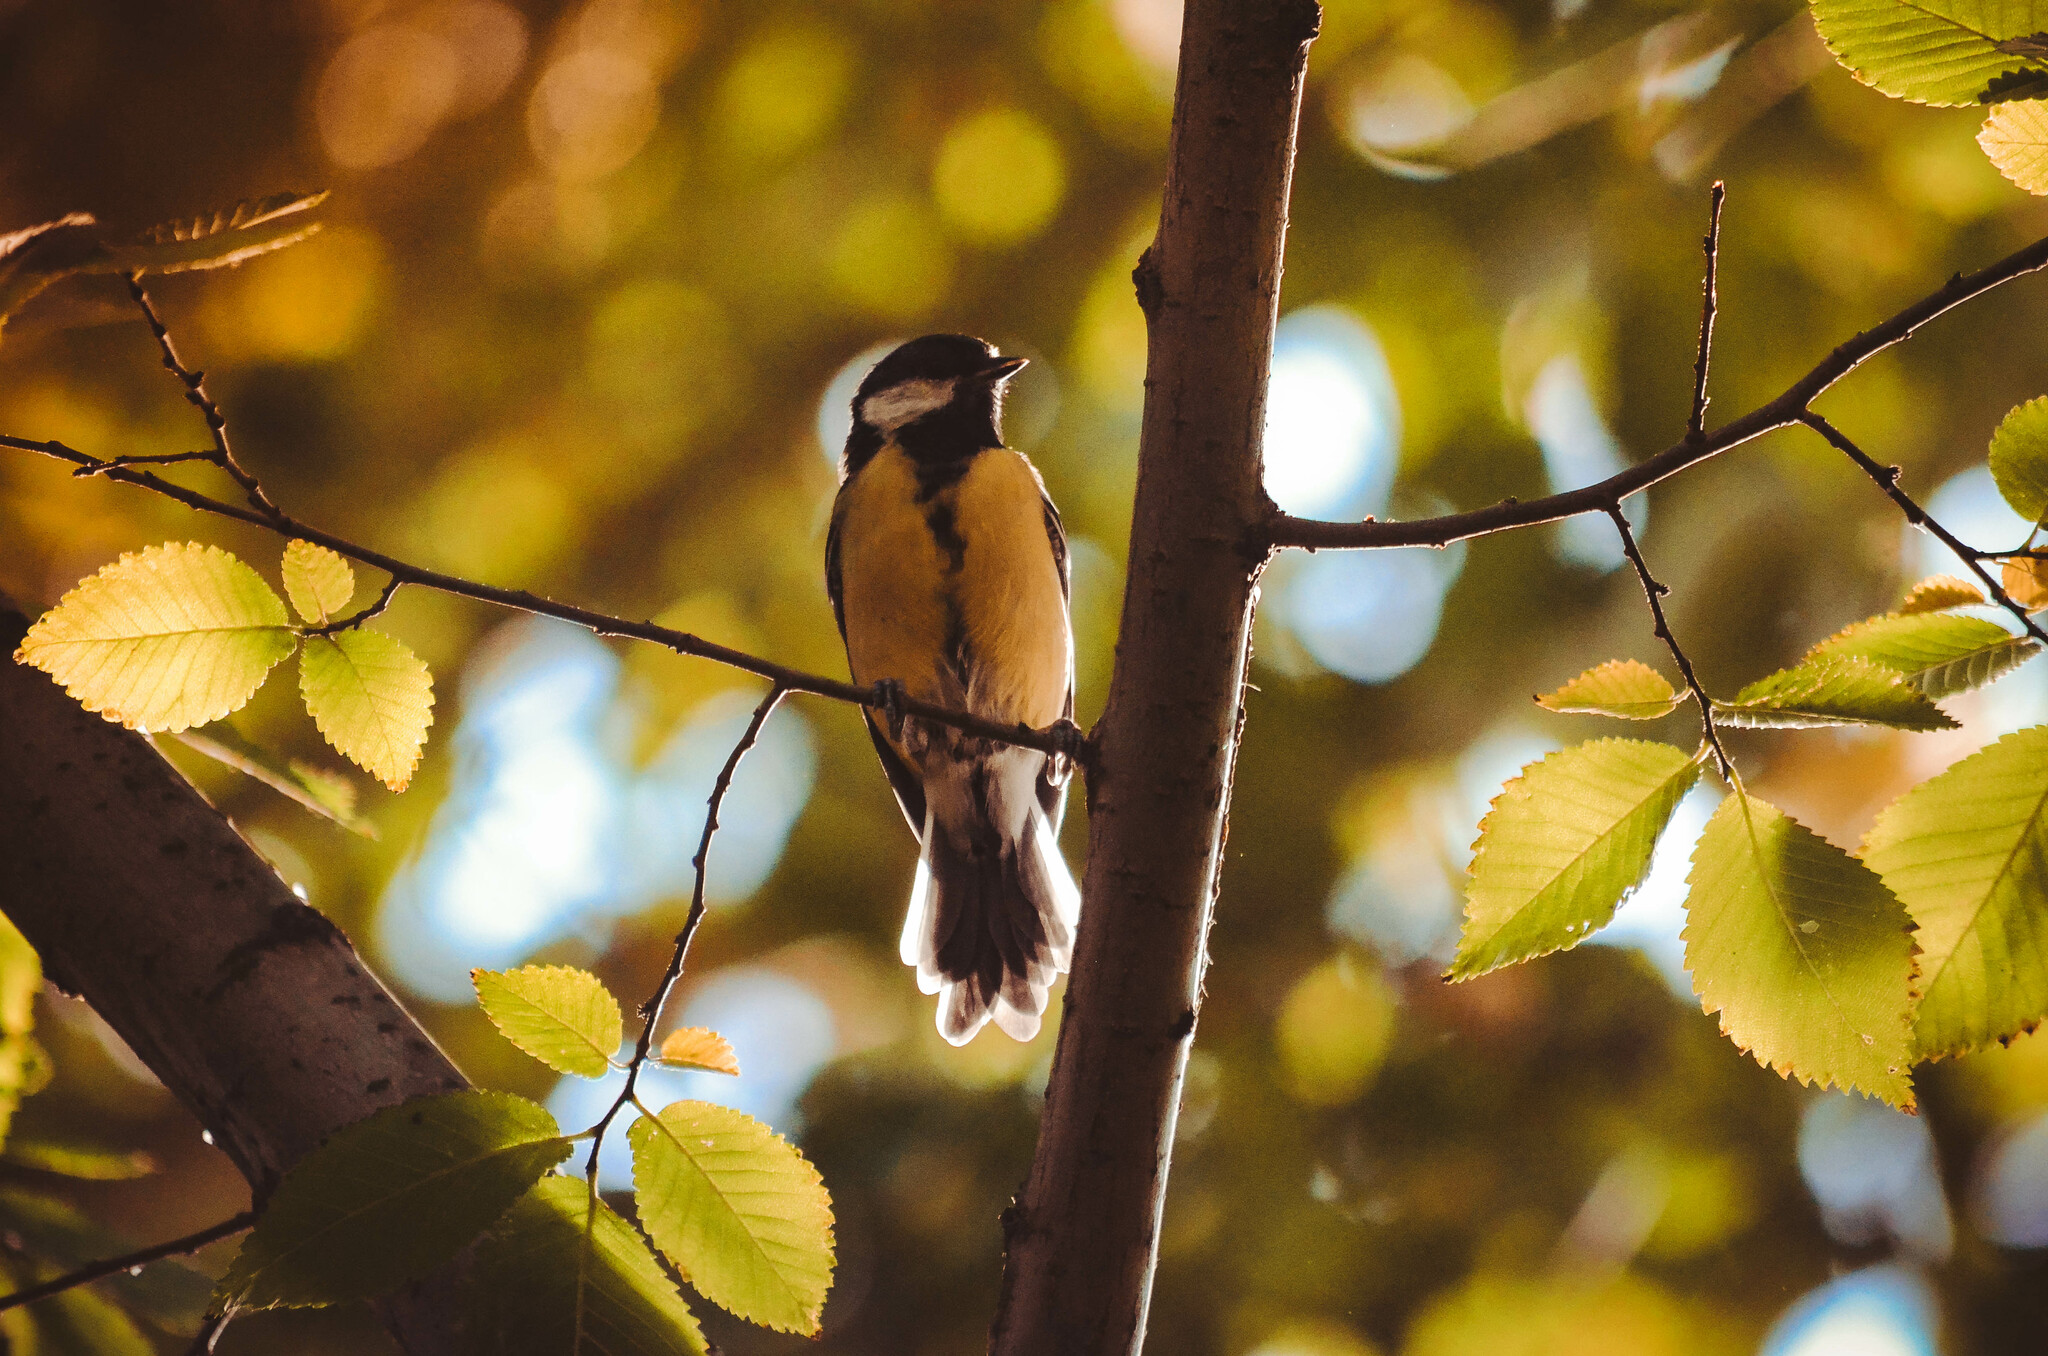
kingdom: Animalia
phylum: Chordata
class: Aves
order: Passeriformes
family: Paridae
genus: Parus
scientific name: Parus major
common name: Great tit
